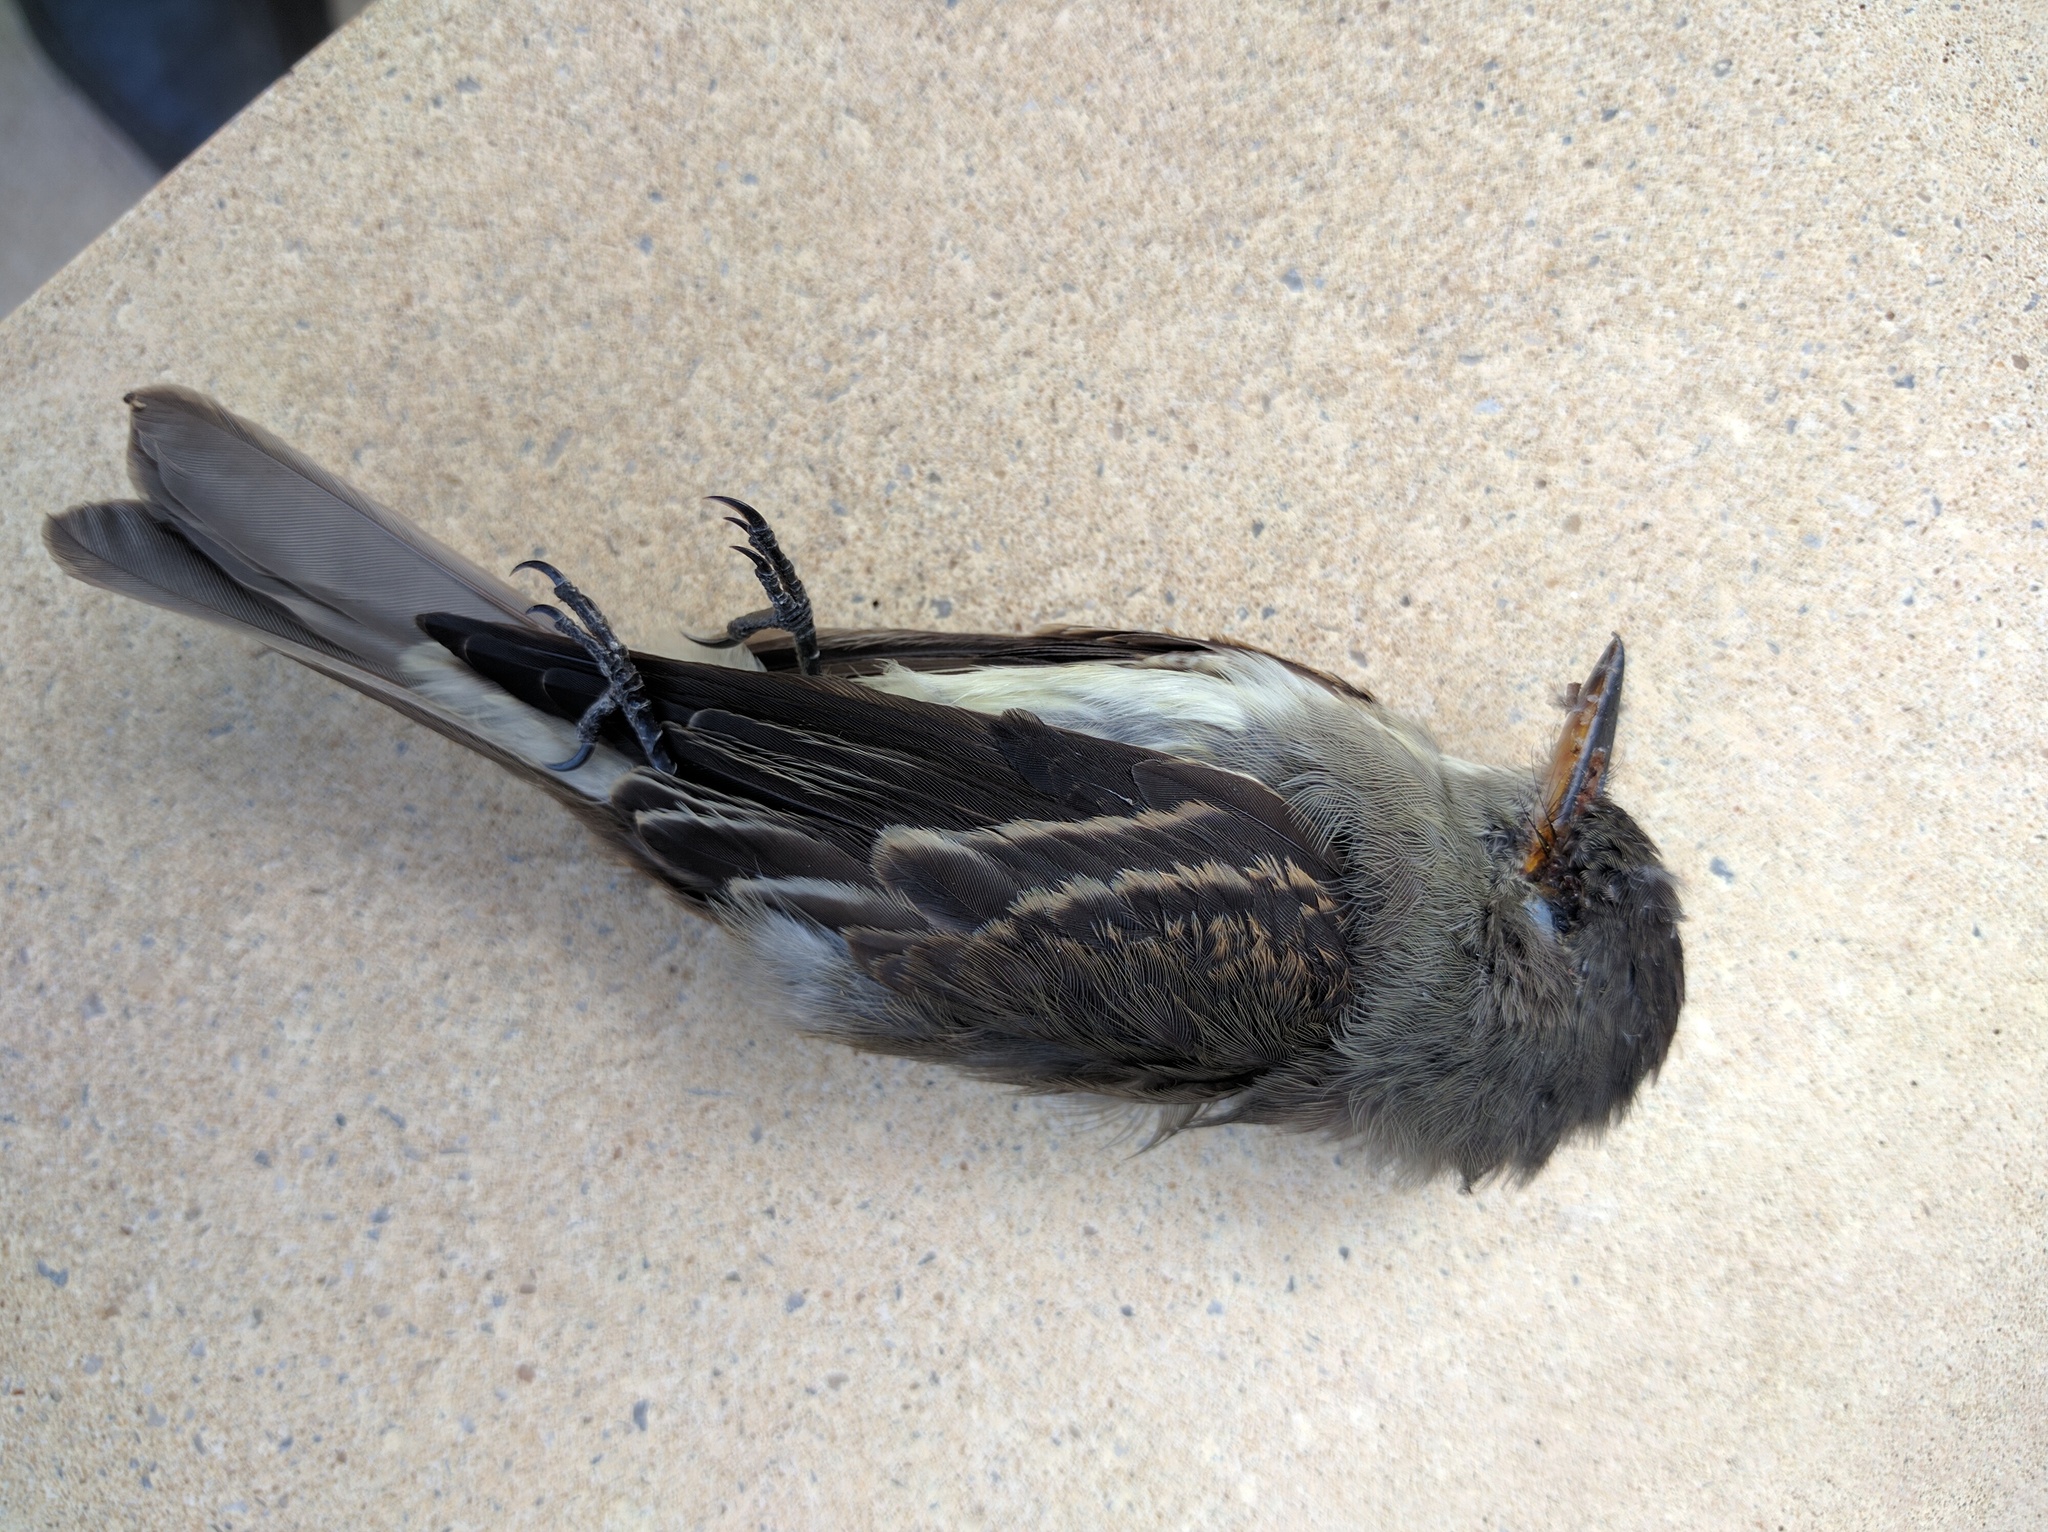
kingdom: Animalia
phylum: Chordata
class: Aves
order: Passeriformes
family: Tyrannidae
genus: Contopus
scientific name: Contopus virens
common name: Eastern wood-pewee
